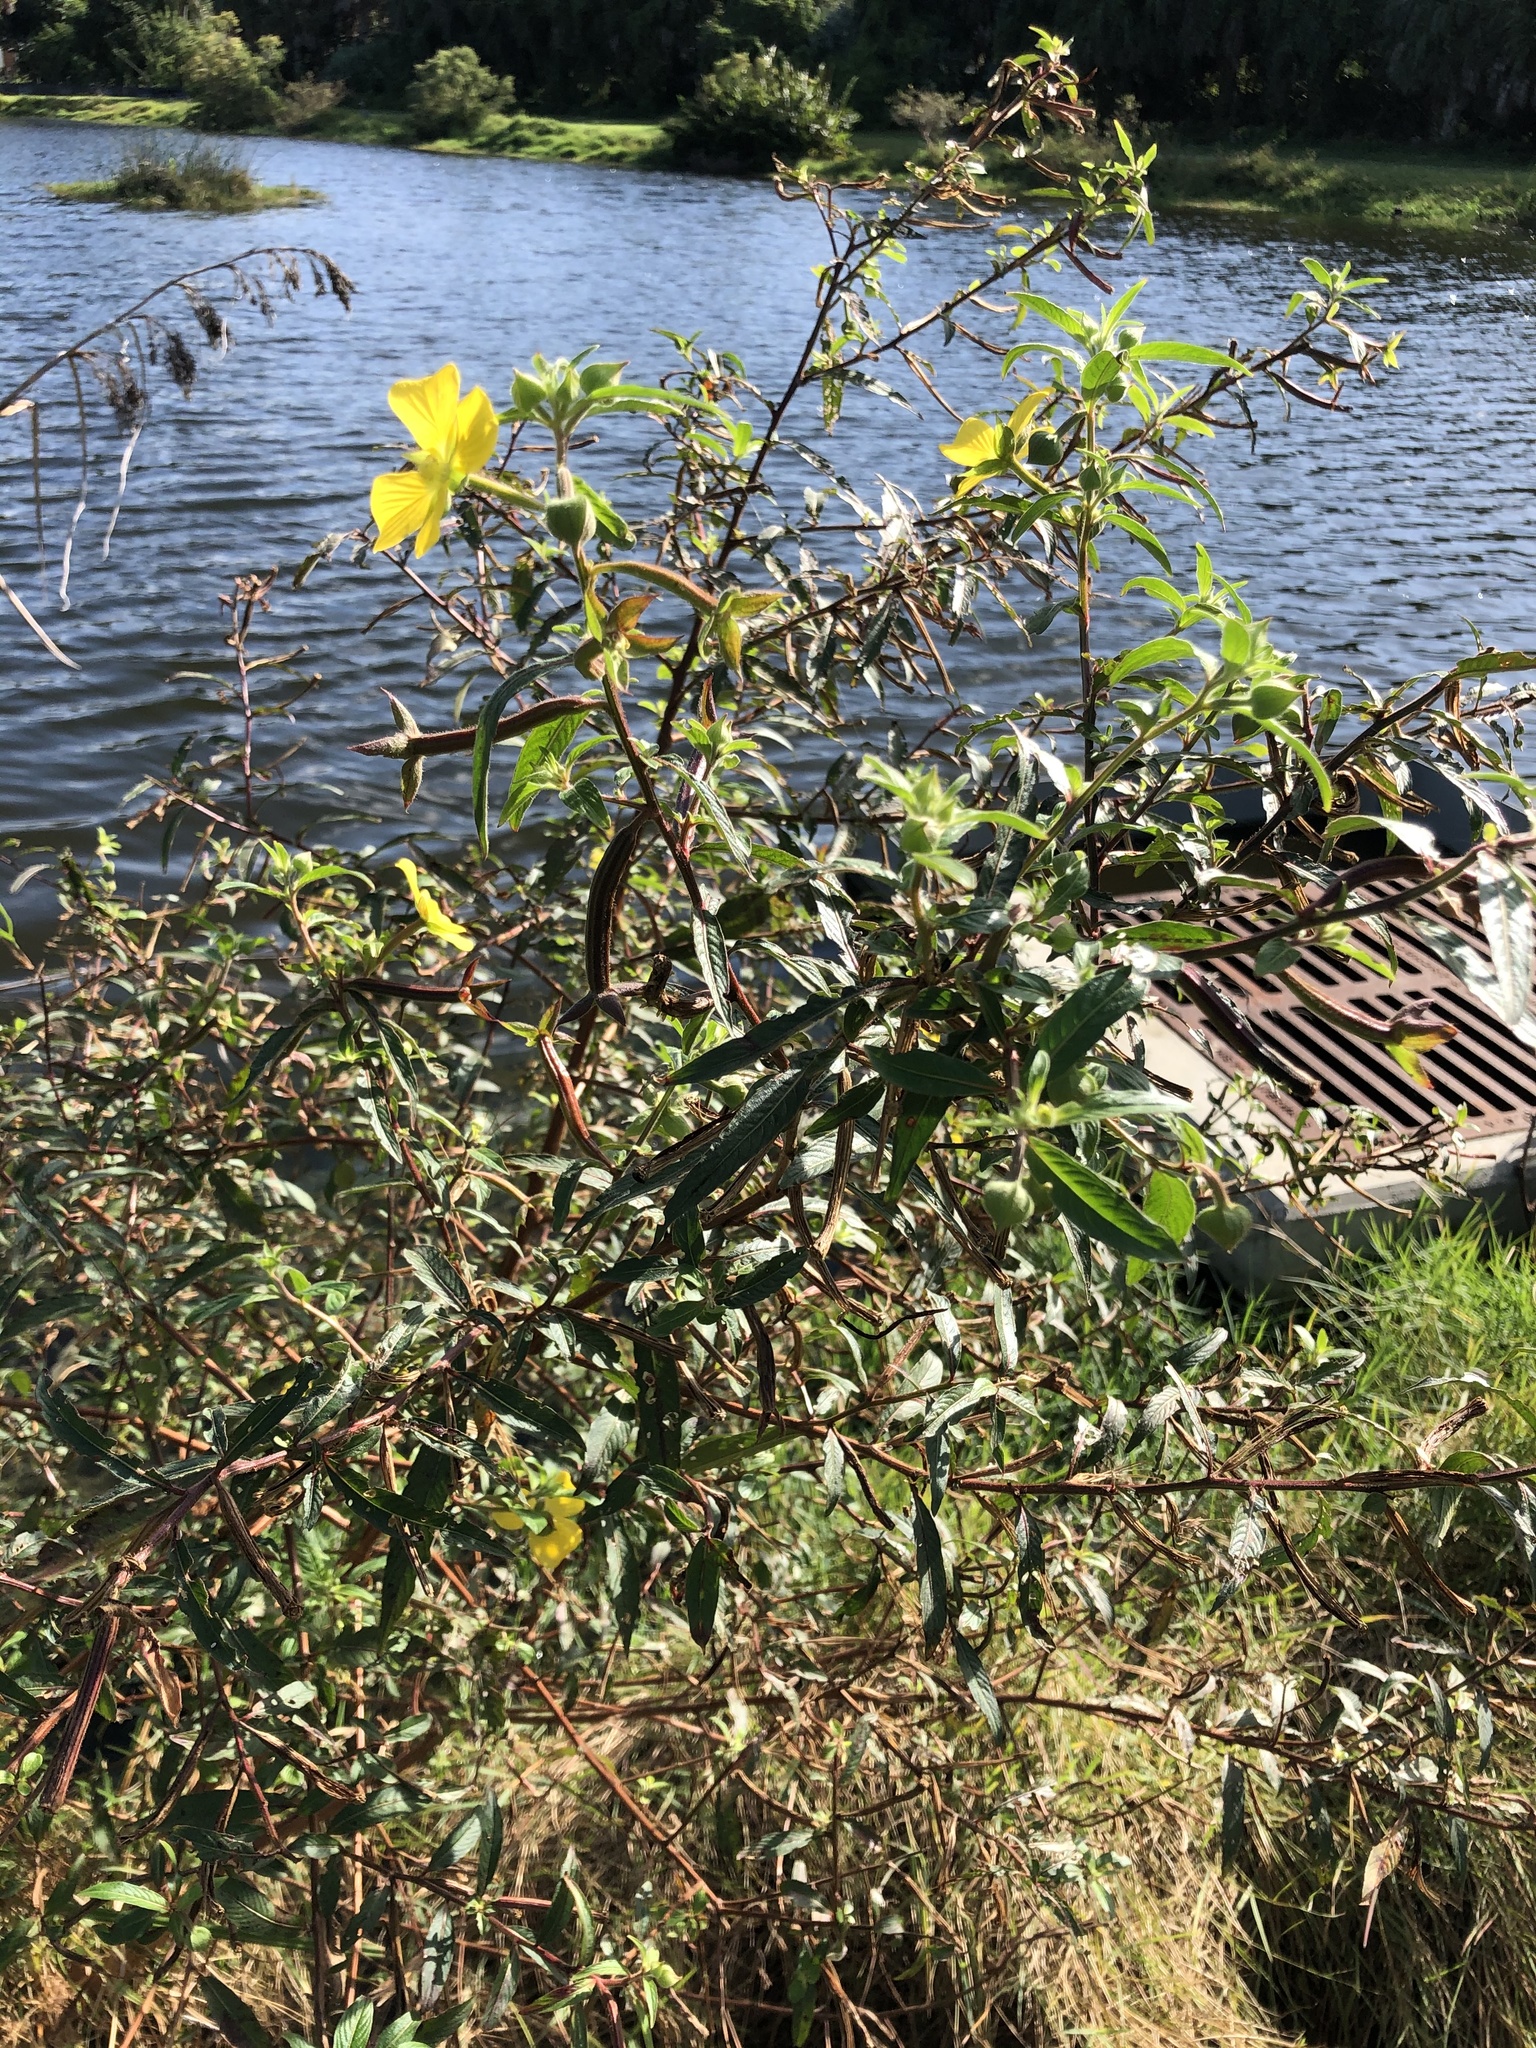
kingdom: Plantae
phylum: Tracheophyta
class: Magnoliopsida
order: Myrtales
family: Onagraceae
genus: Ludwigia
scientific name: Ludwigia octovalvis
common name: Water-primrose
